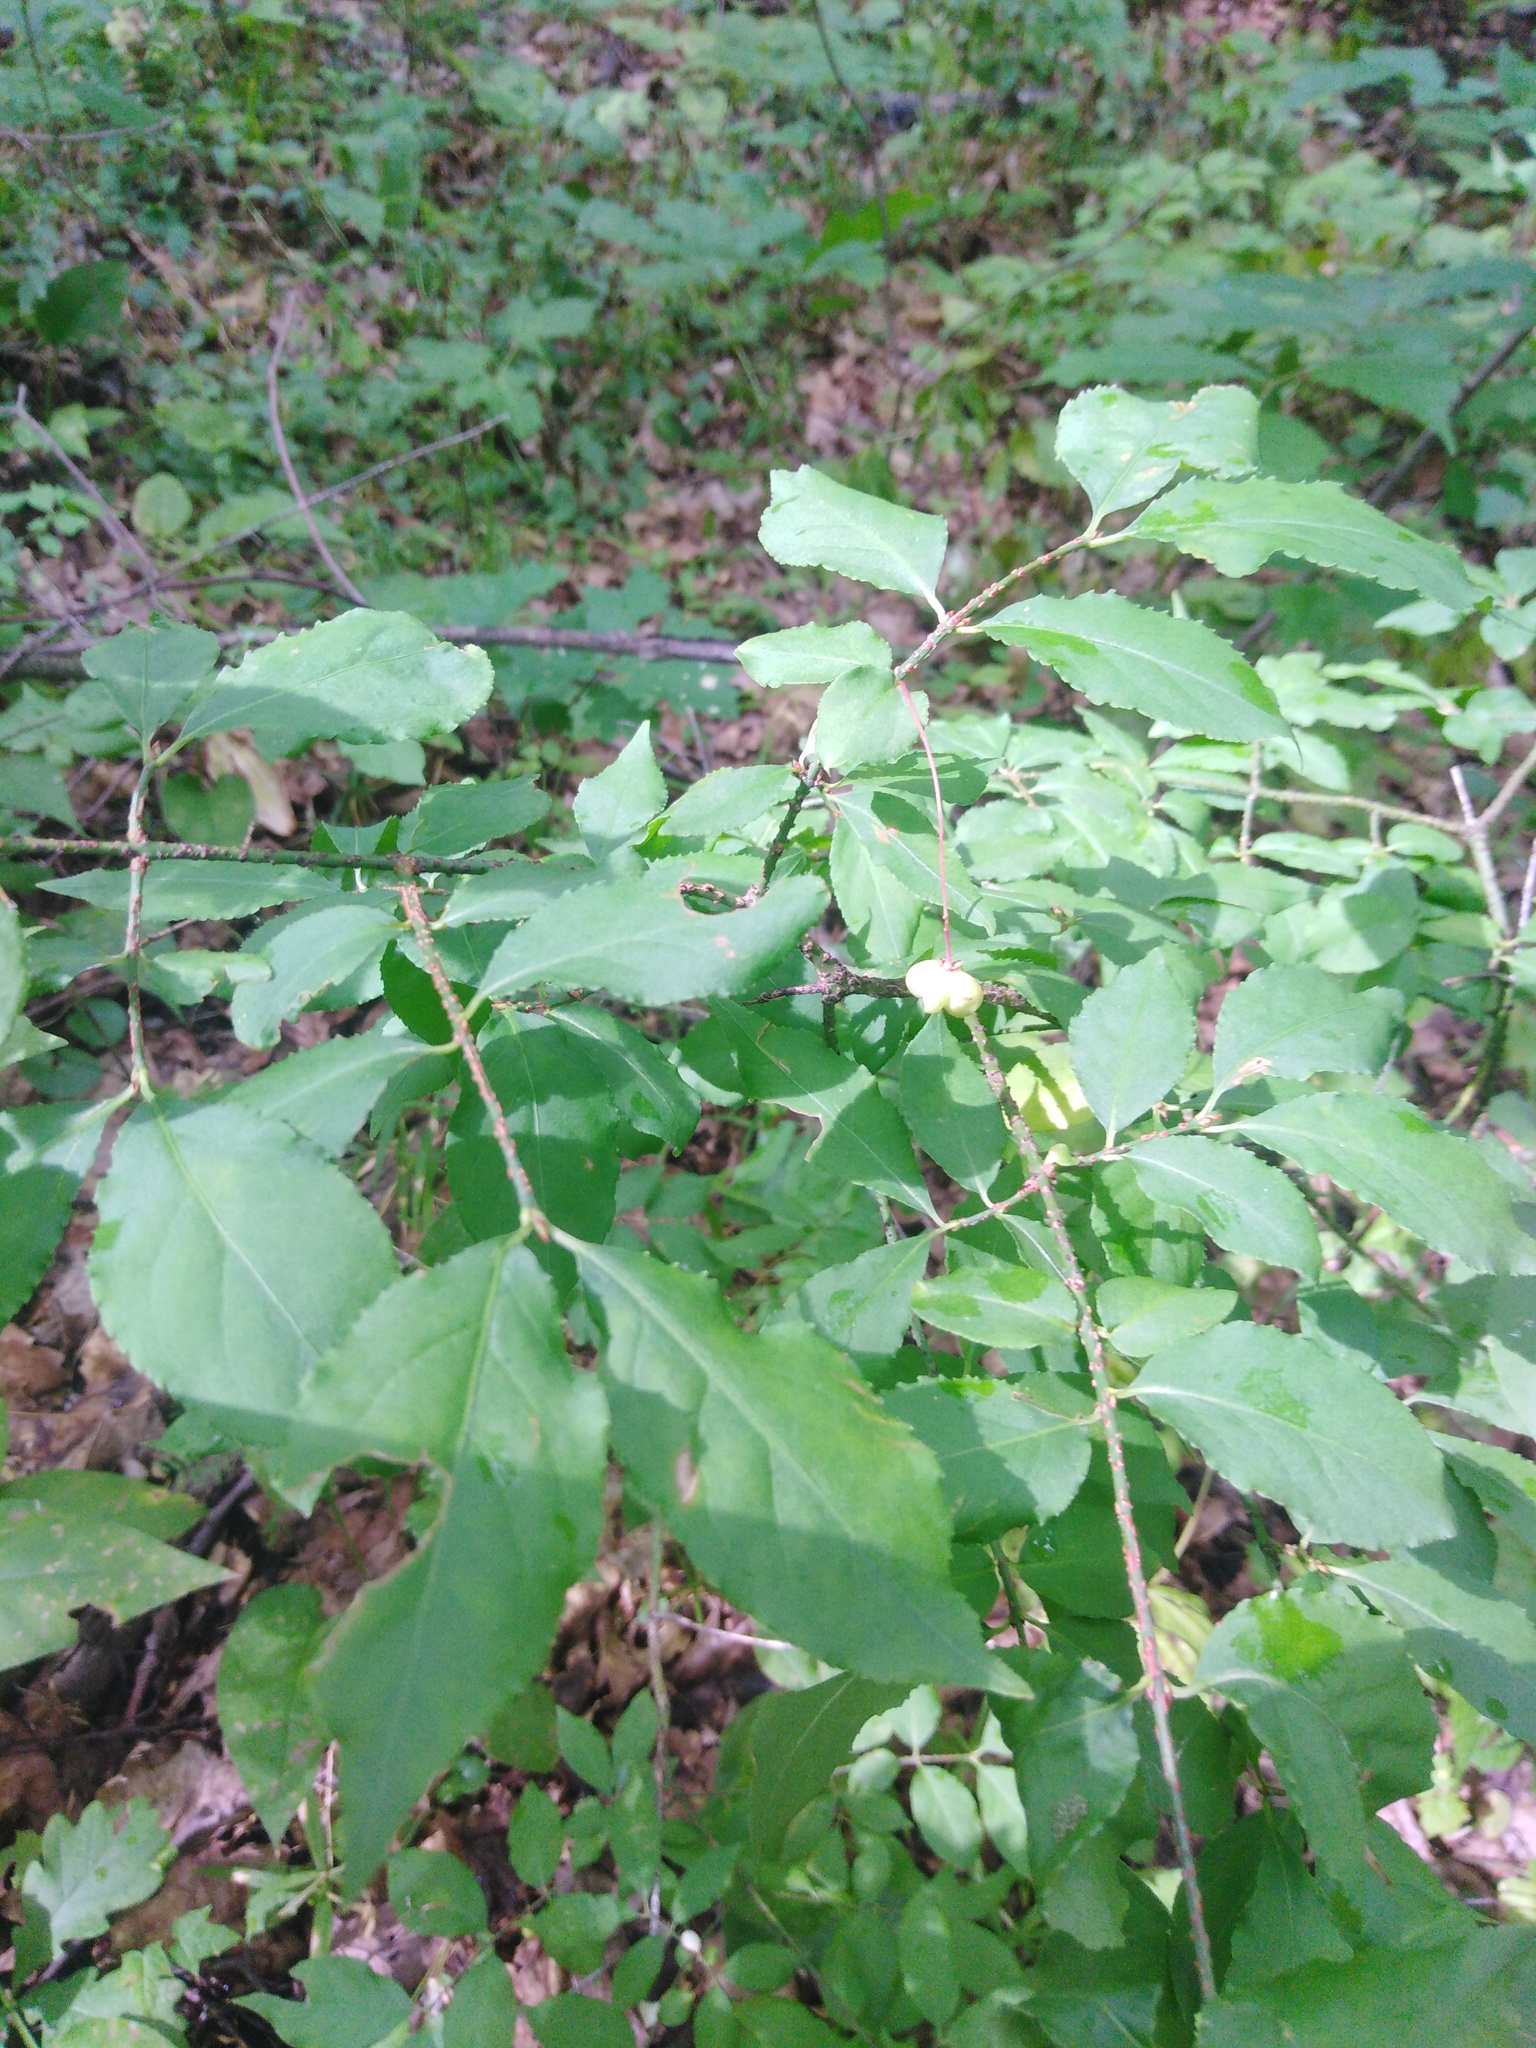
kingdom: Plantae
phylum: Tracheophyta
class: Magnoliopsida
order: Celastrales
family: Celastraceae
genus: Euonymus
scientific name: Euonymus verrucosus
